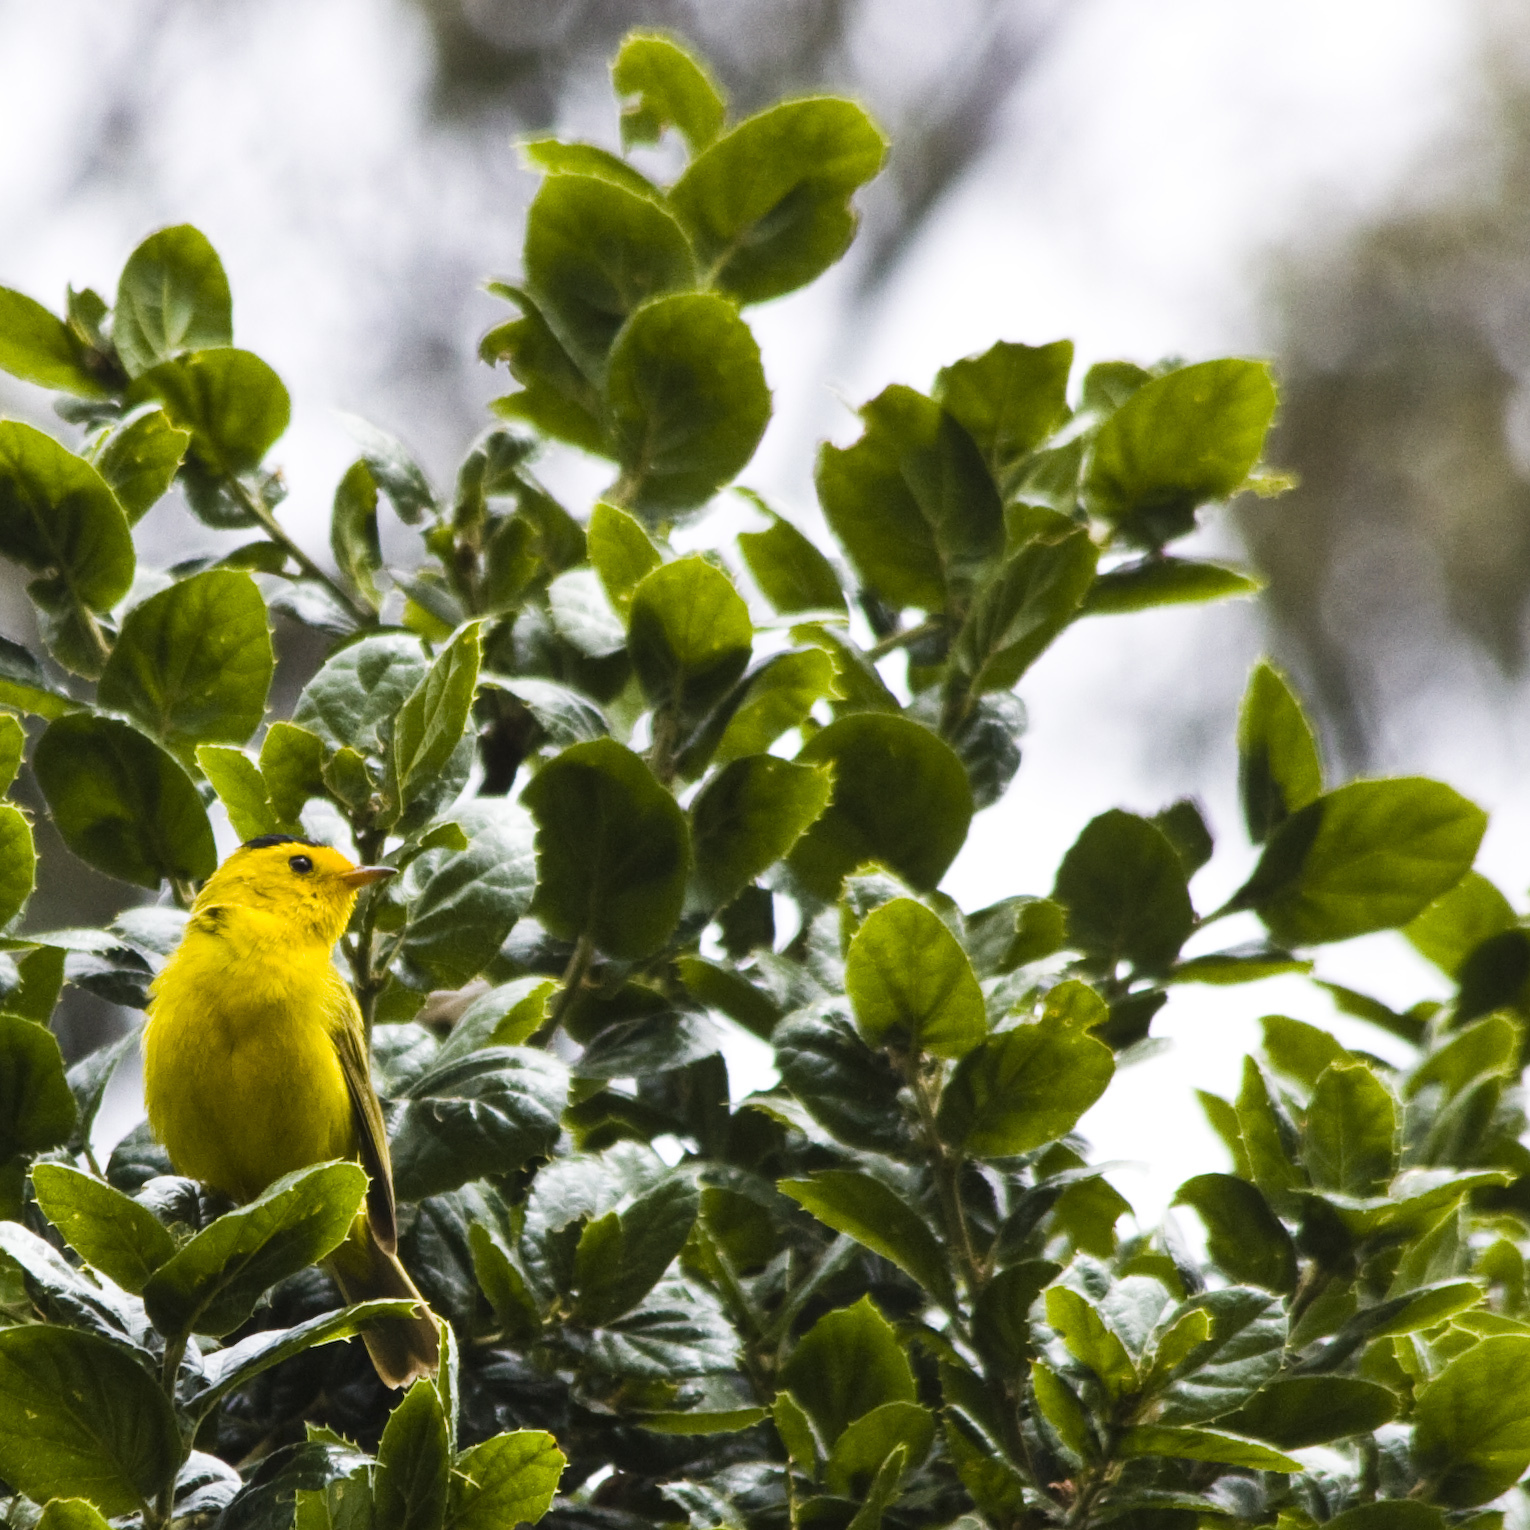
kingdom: Animalia
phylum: Chordata
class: Aves
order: Passeriformes
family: Parulidae
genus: Cardellina
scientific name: Cardellina pusilla
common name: Wilson's warbler
